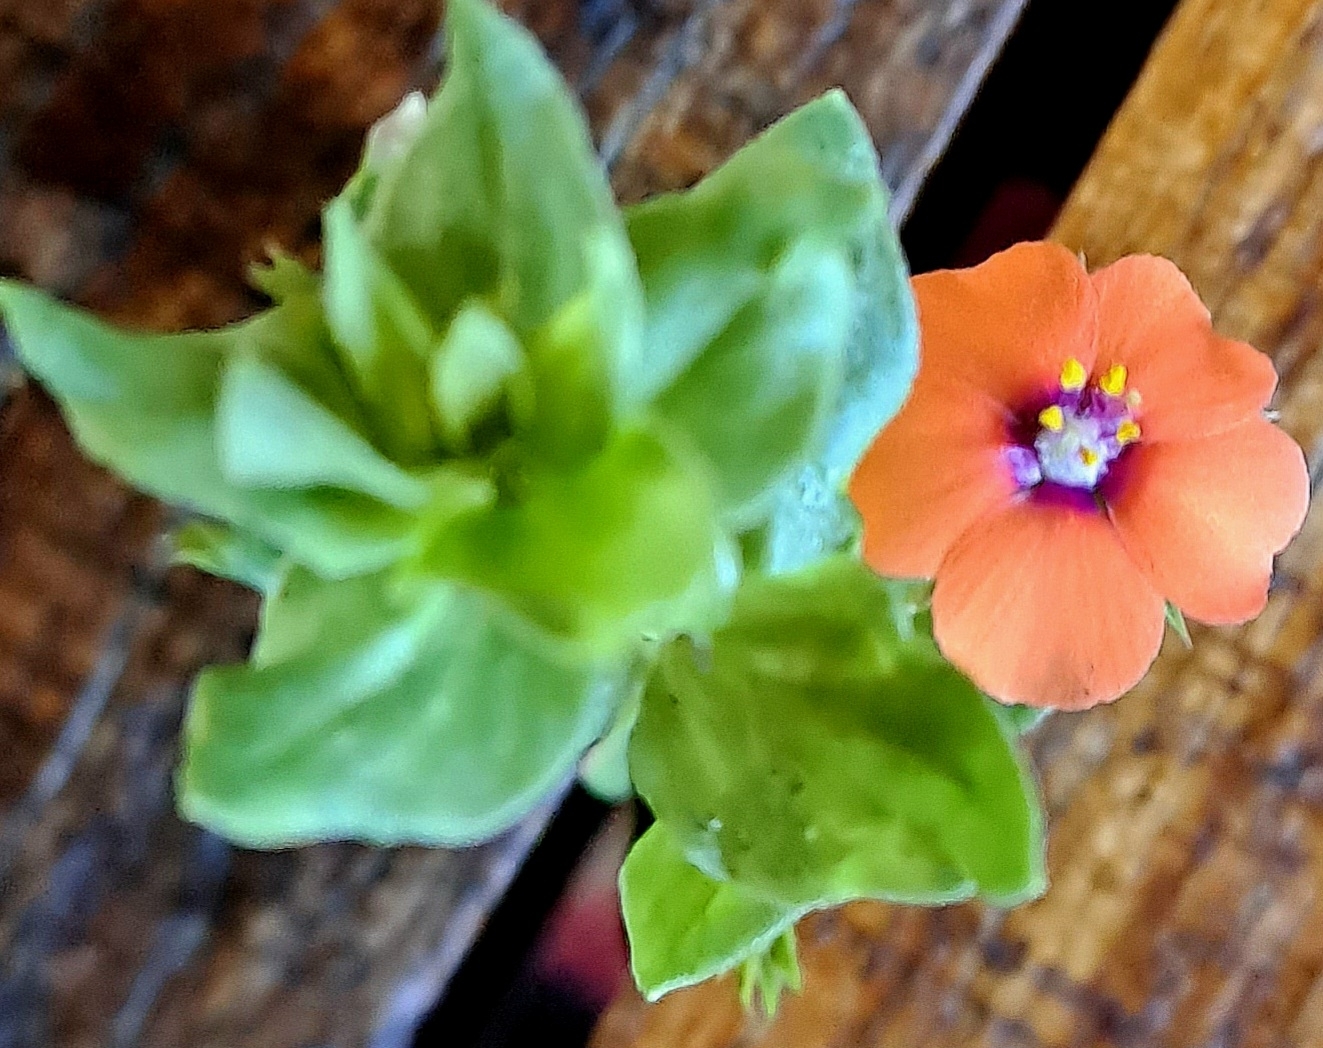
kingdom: Plantae
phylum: Tracheophyta
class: Magnoliopsida
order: Ericales
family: Primulaceae
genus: Lysimachia
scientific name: Lysimachia arvensis
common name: Scarlet pimpernel
